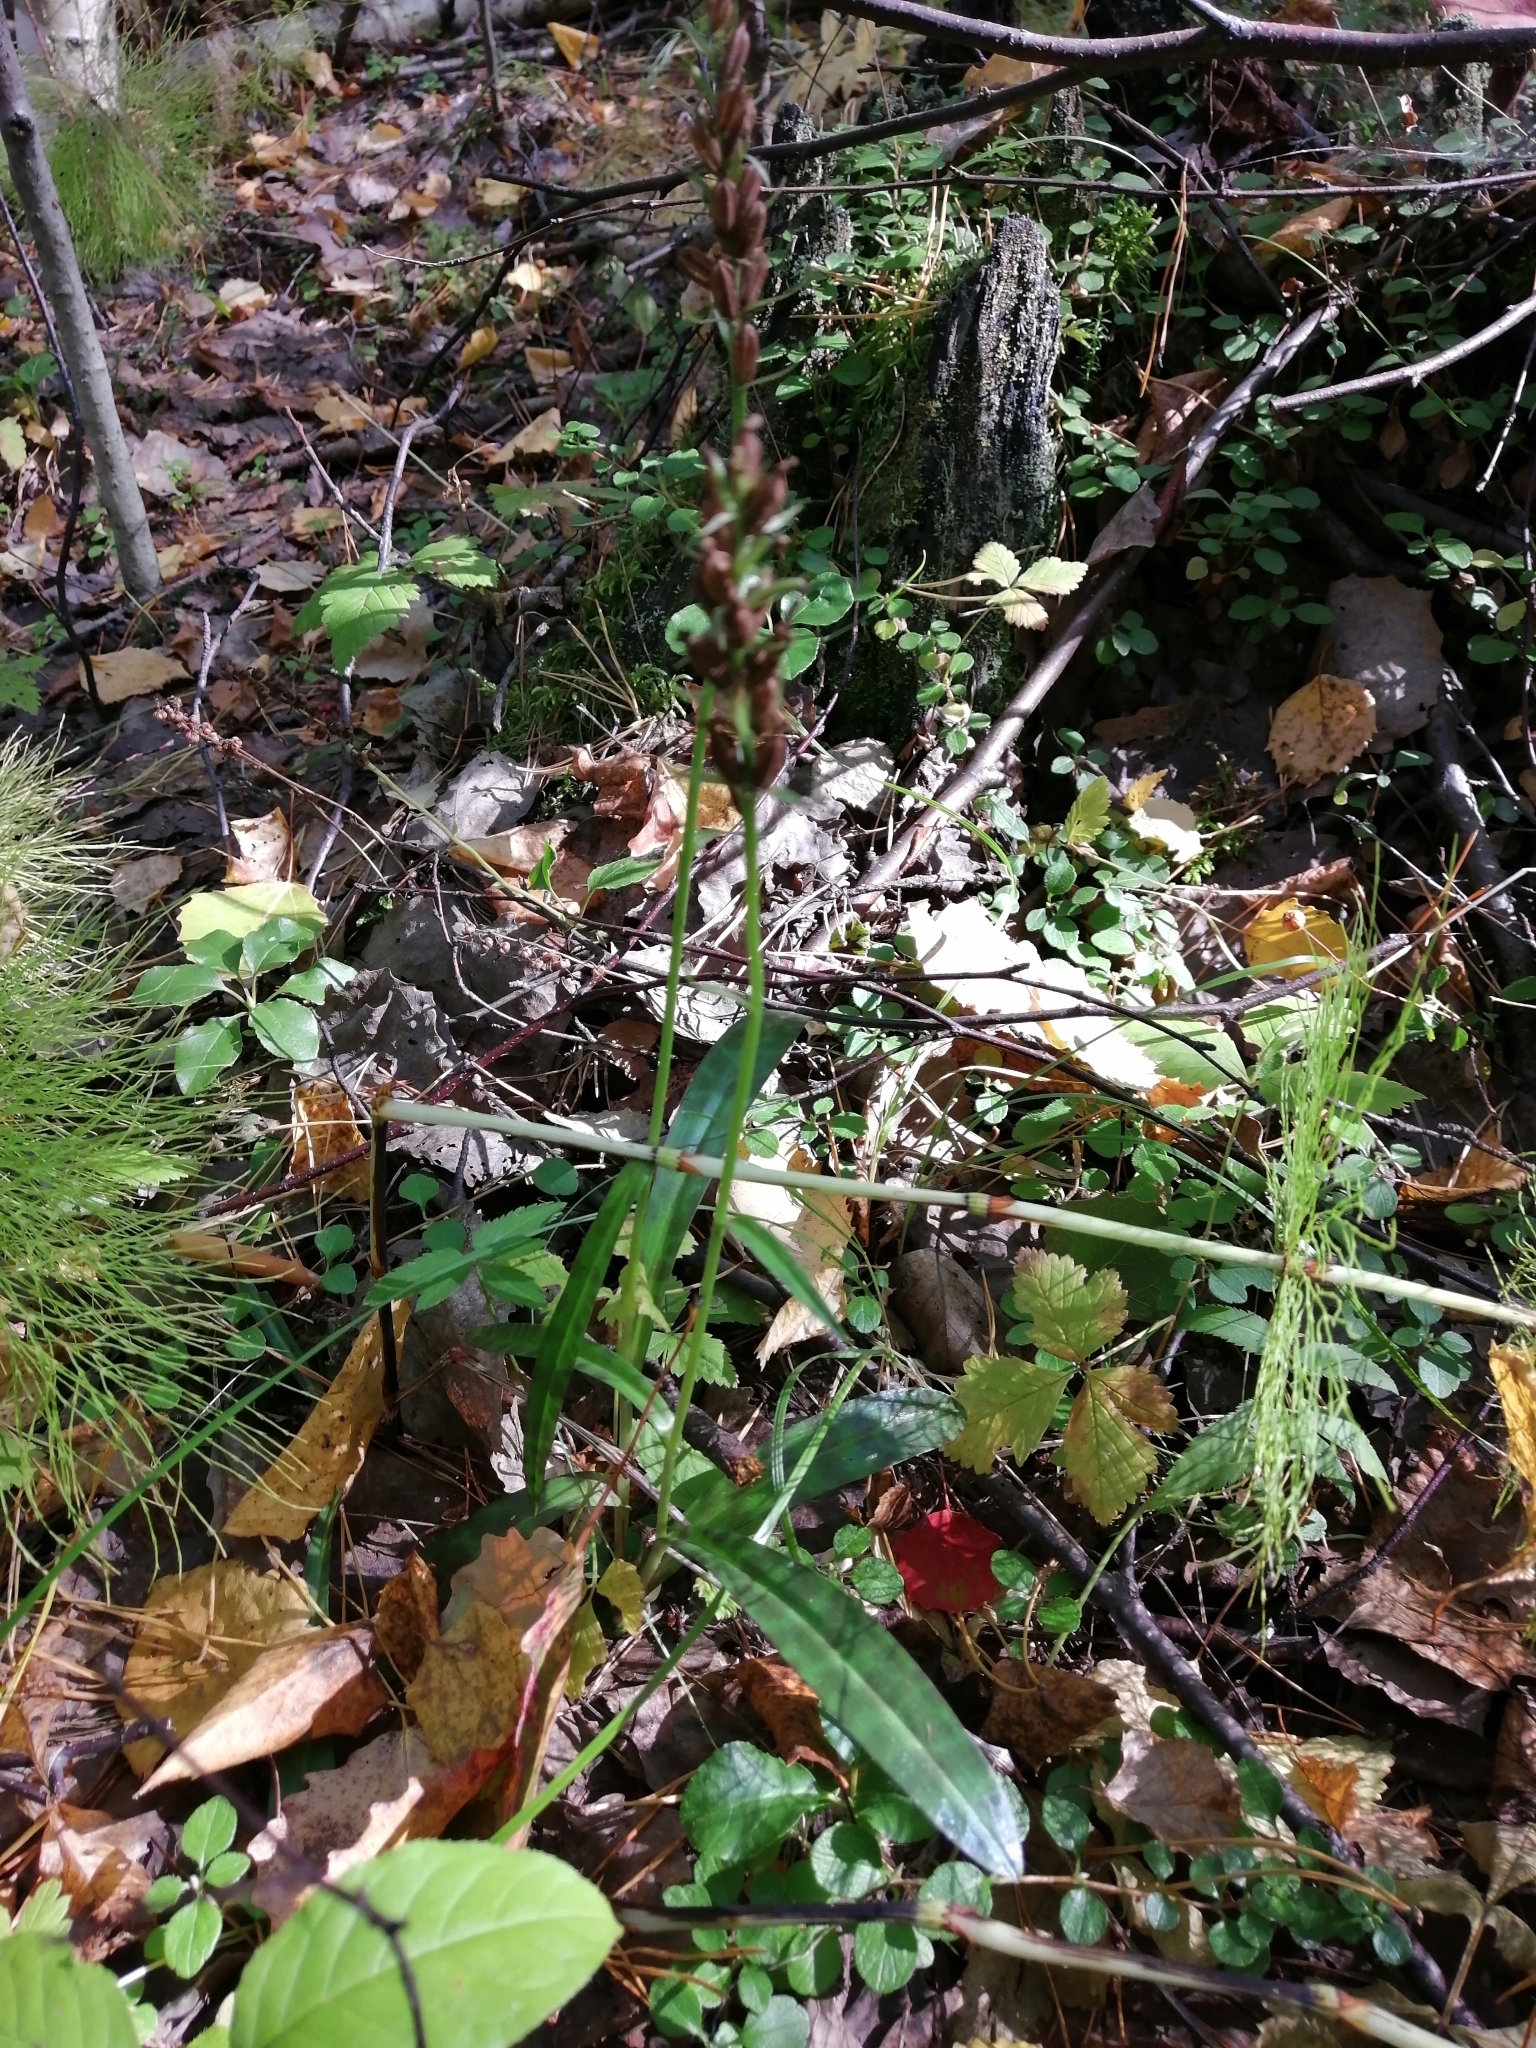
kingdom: Plantae
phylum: Tracheophyta
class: Liliopsida
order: Asparagales
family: Orchidaceae
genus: Dactylorhiza
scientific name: Dactylorhiza maculata
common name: Heath spotted-orchid
